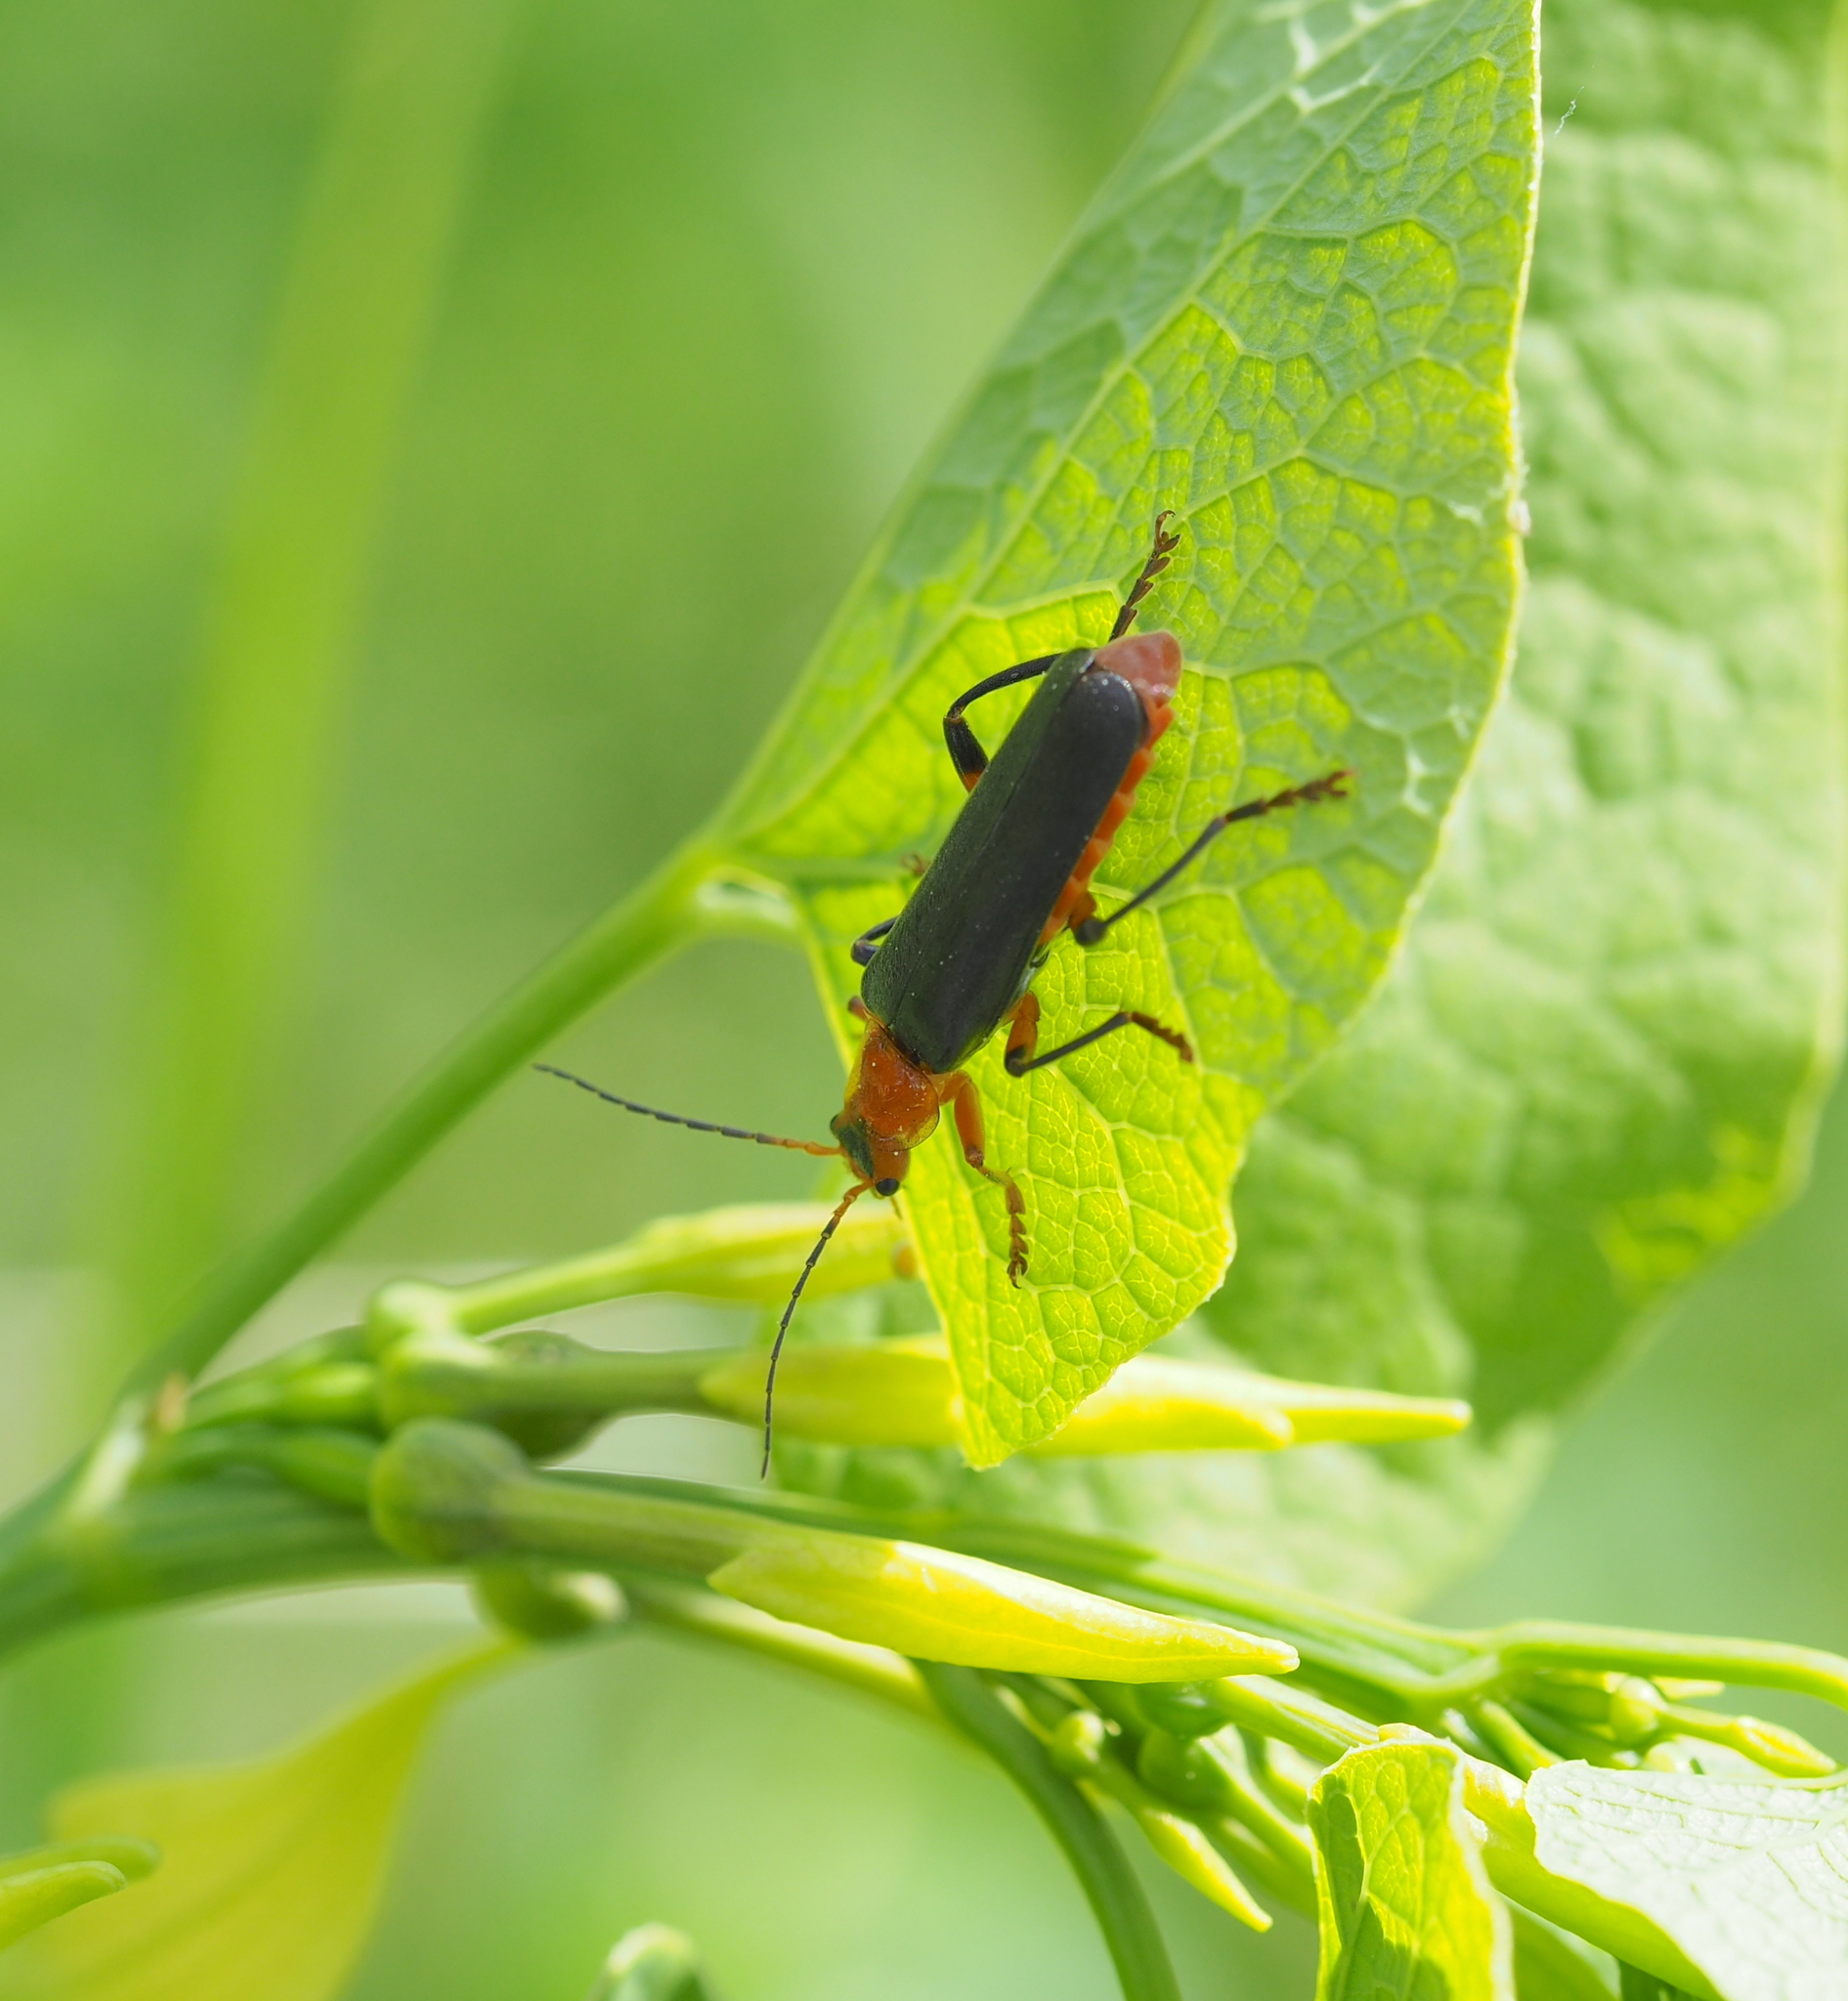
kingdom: Animalia
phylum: Arthropoda
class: Insecta
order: Coleoptera
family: Cantharidae
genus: Cantharis
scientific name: Cantharis livida
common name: Livid soldier beetle
